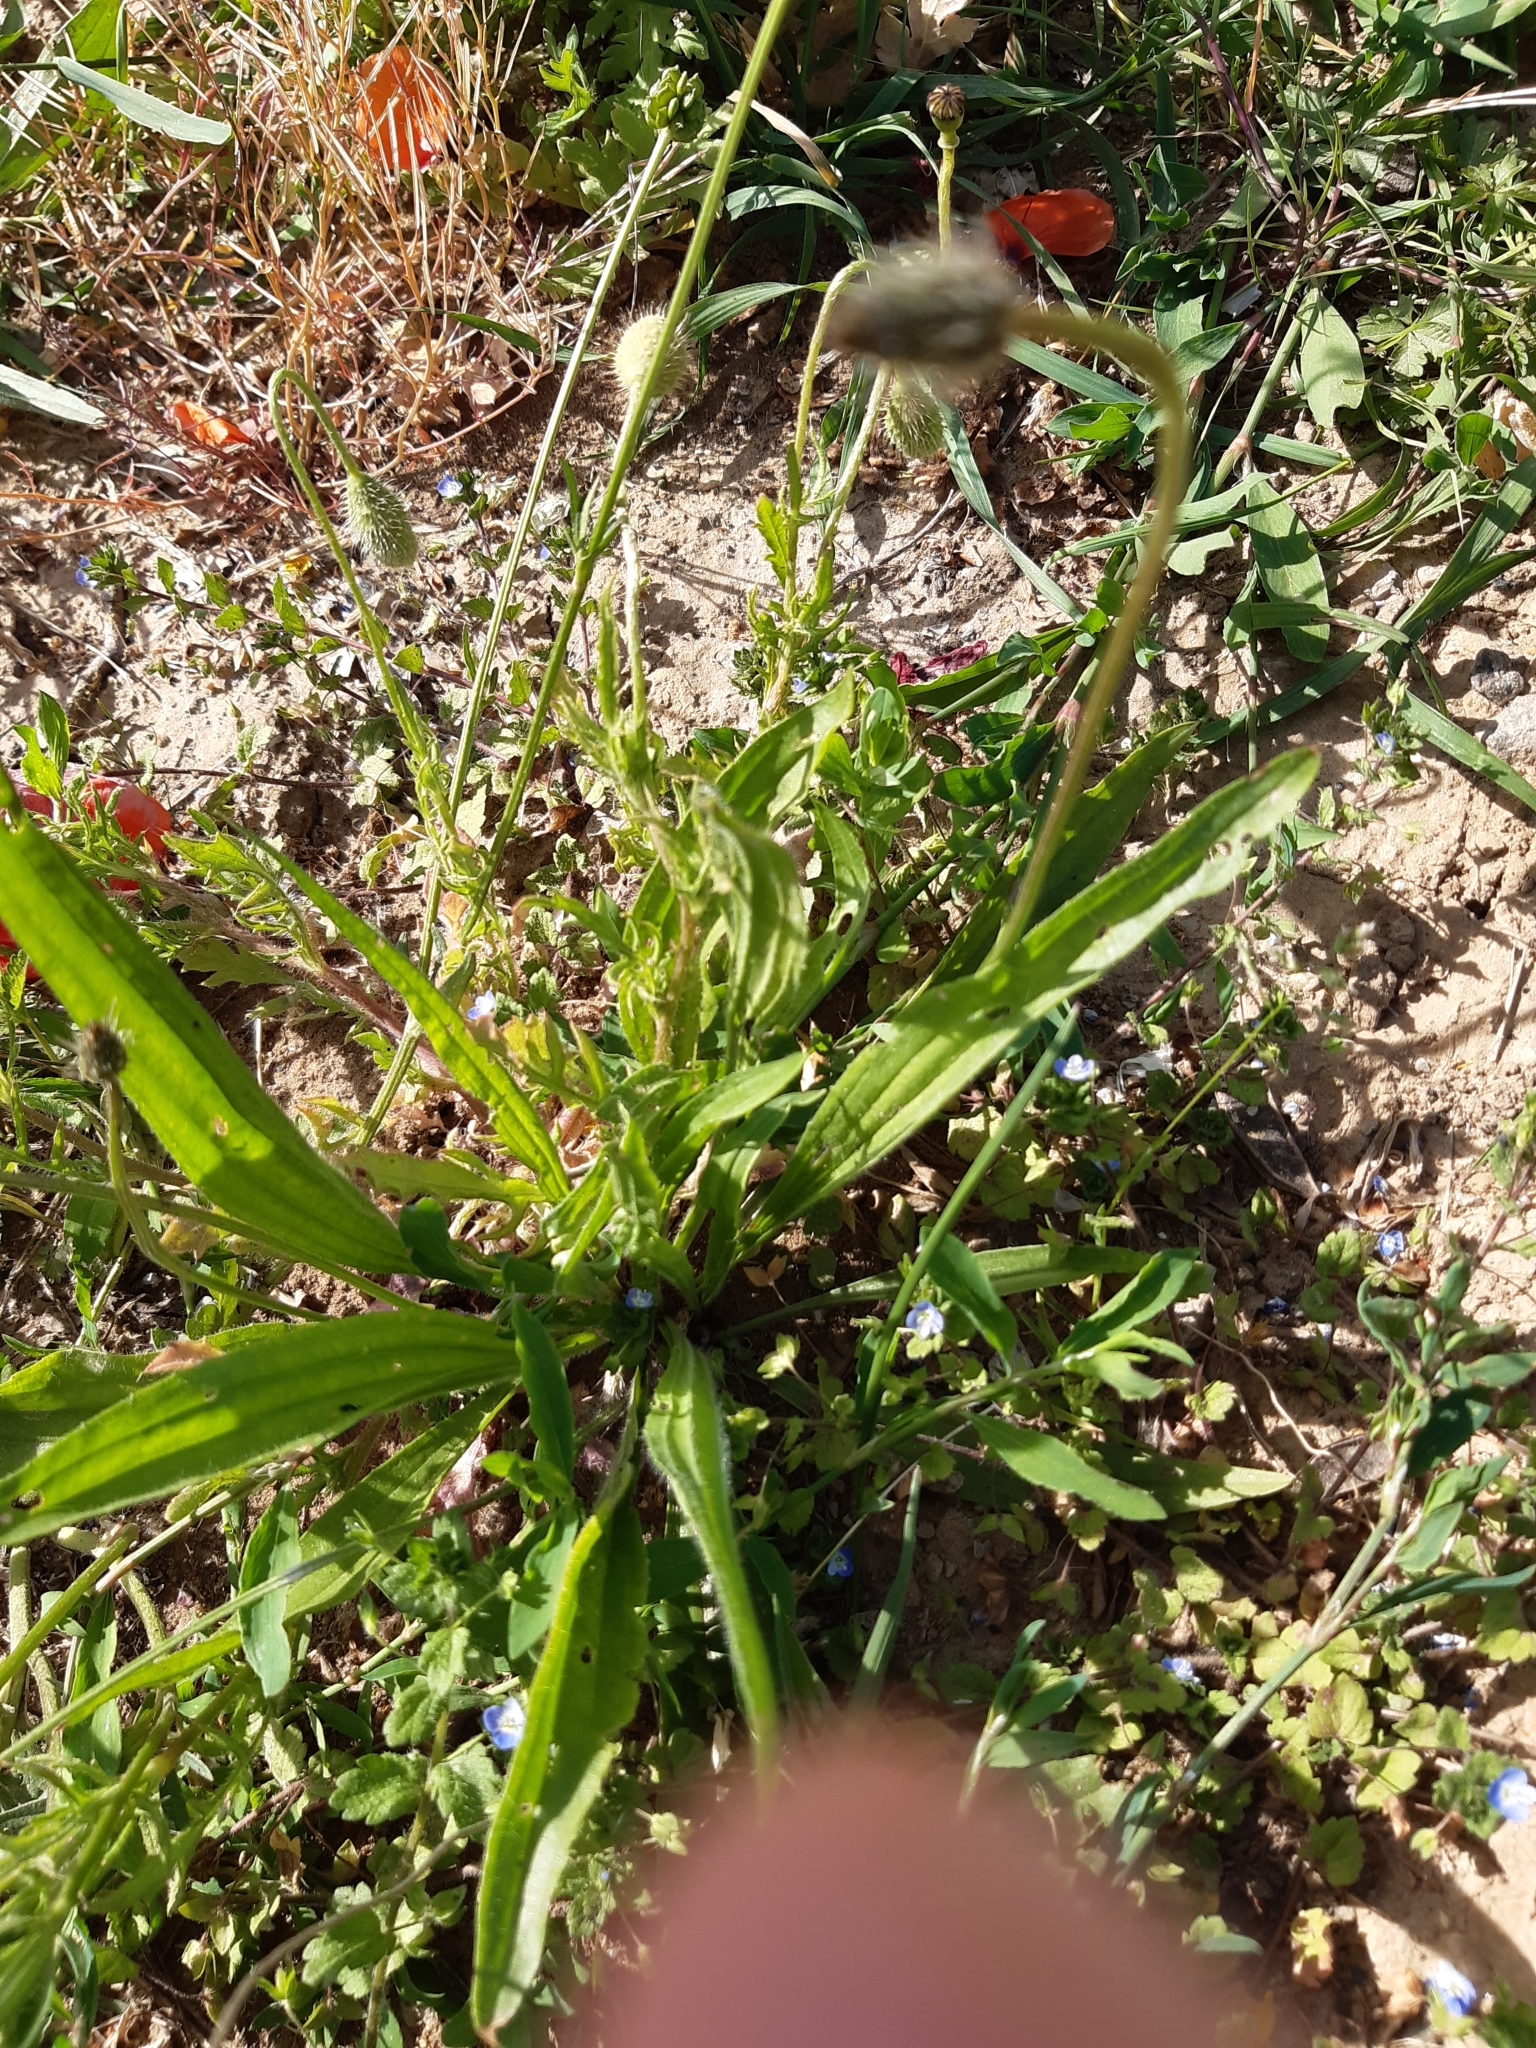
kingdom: Plantae
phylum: Tracheophyta
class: Magnoliopsida
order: Lamiales
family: Plantaginaceae
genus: Plantago
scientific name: Plantago lanceolata
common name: Ribwort plantain
